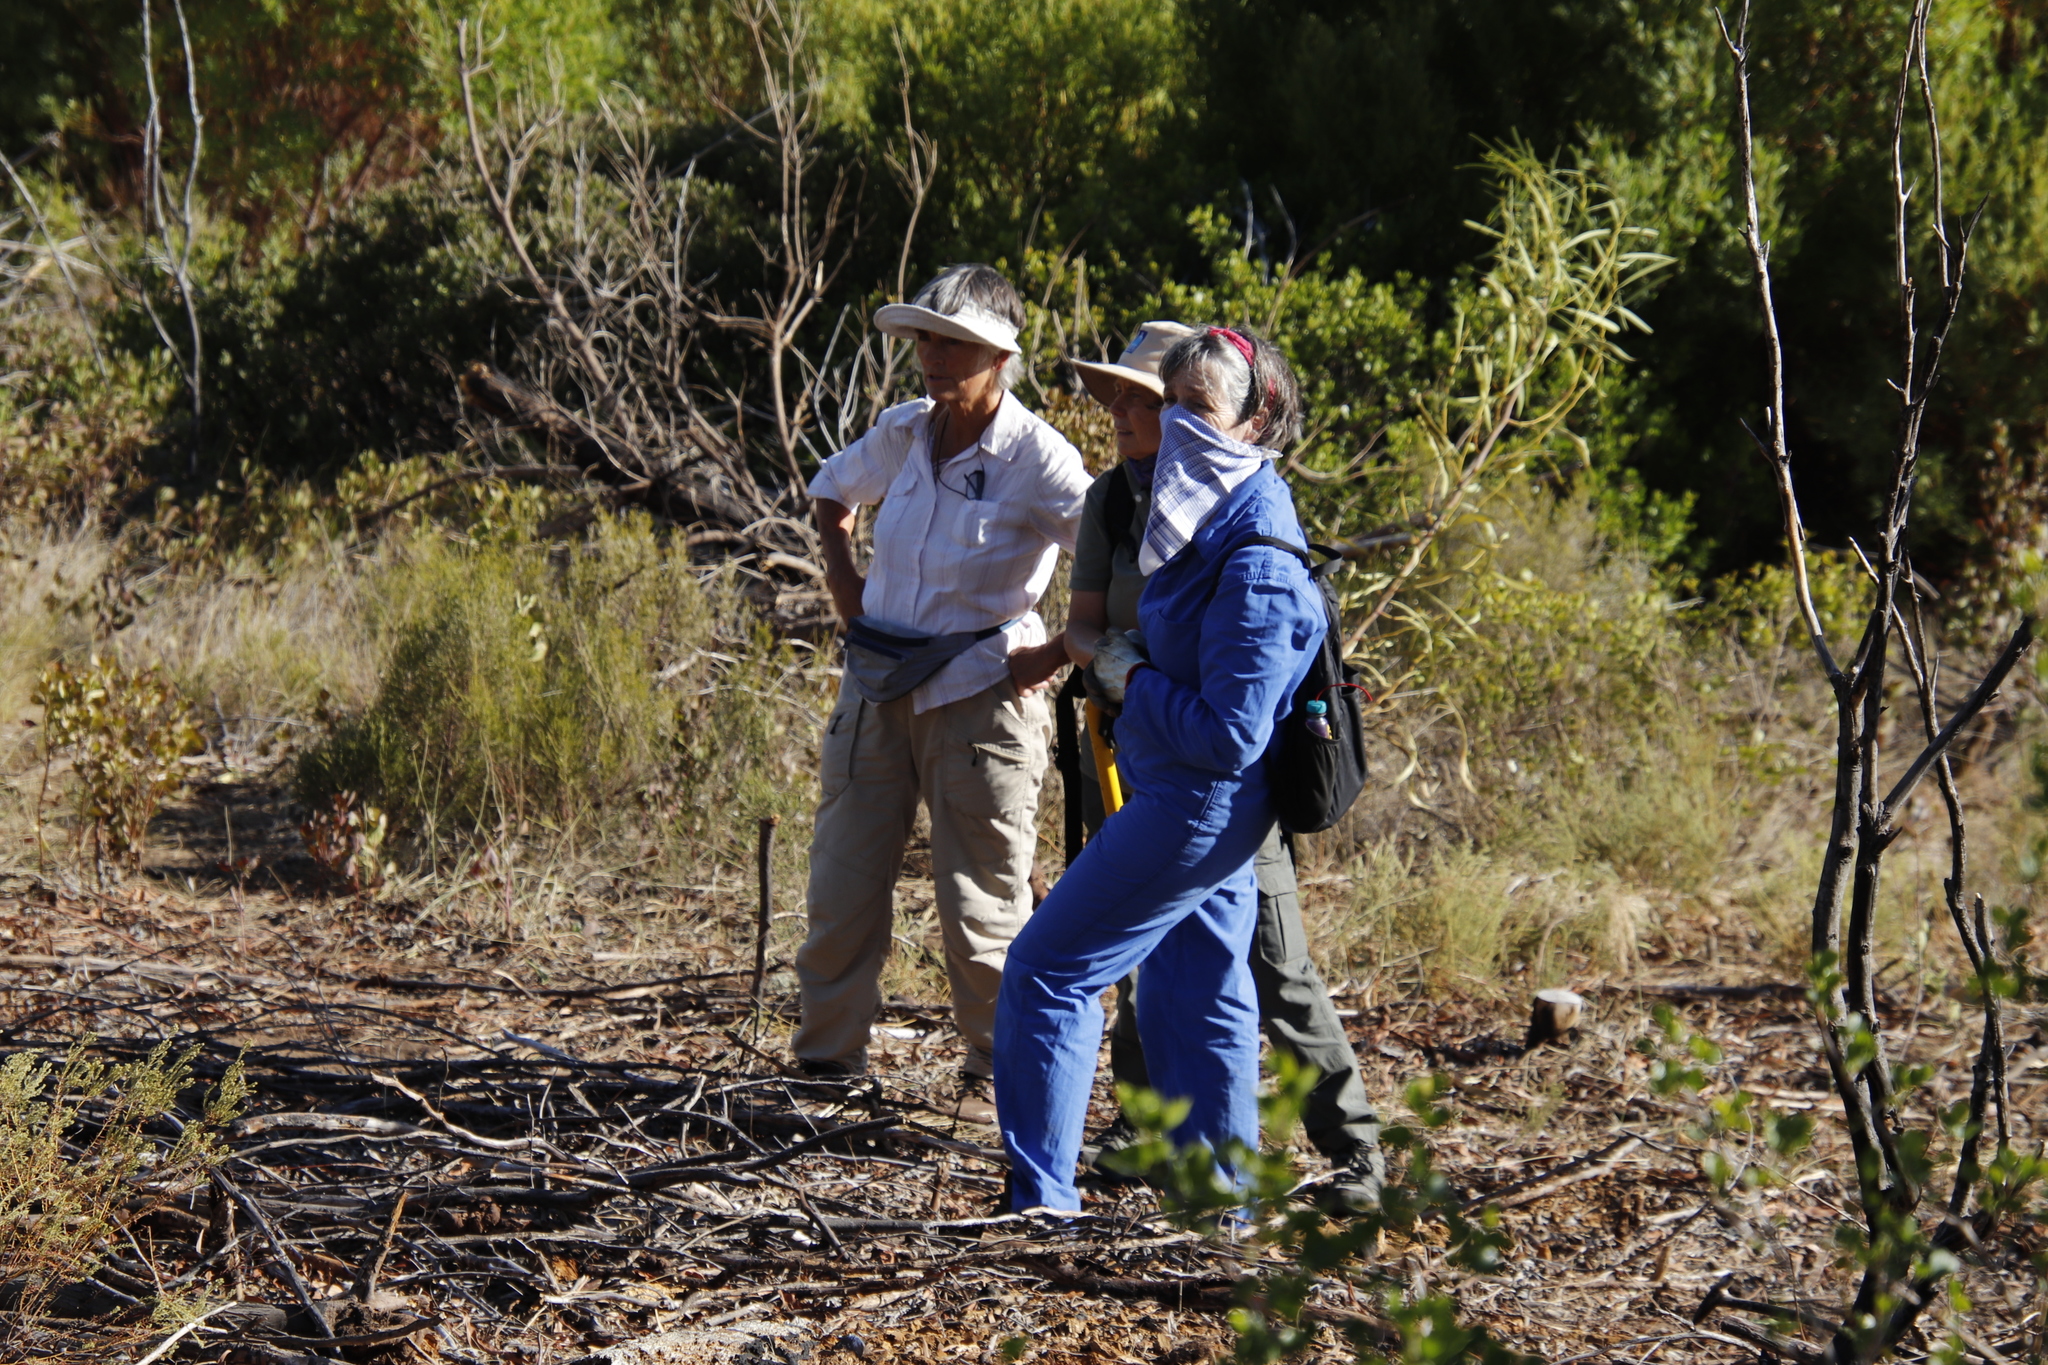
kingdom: Plantae
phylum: Tracheophyta
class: Magnoliopsida
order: Fabales
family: Fabaceae
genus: Acacia
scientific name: Acacia saligna
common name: Orange wattle
